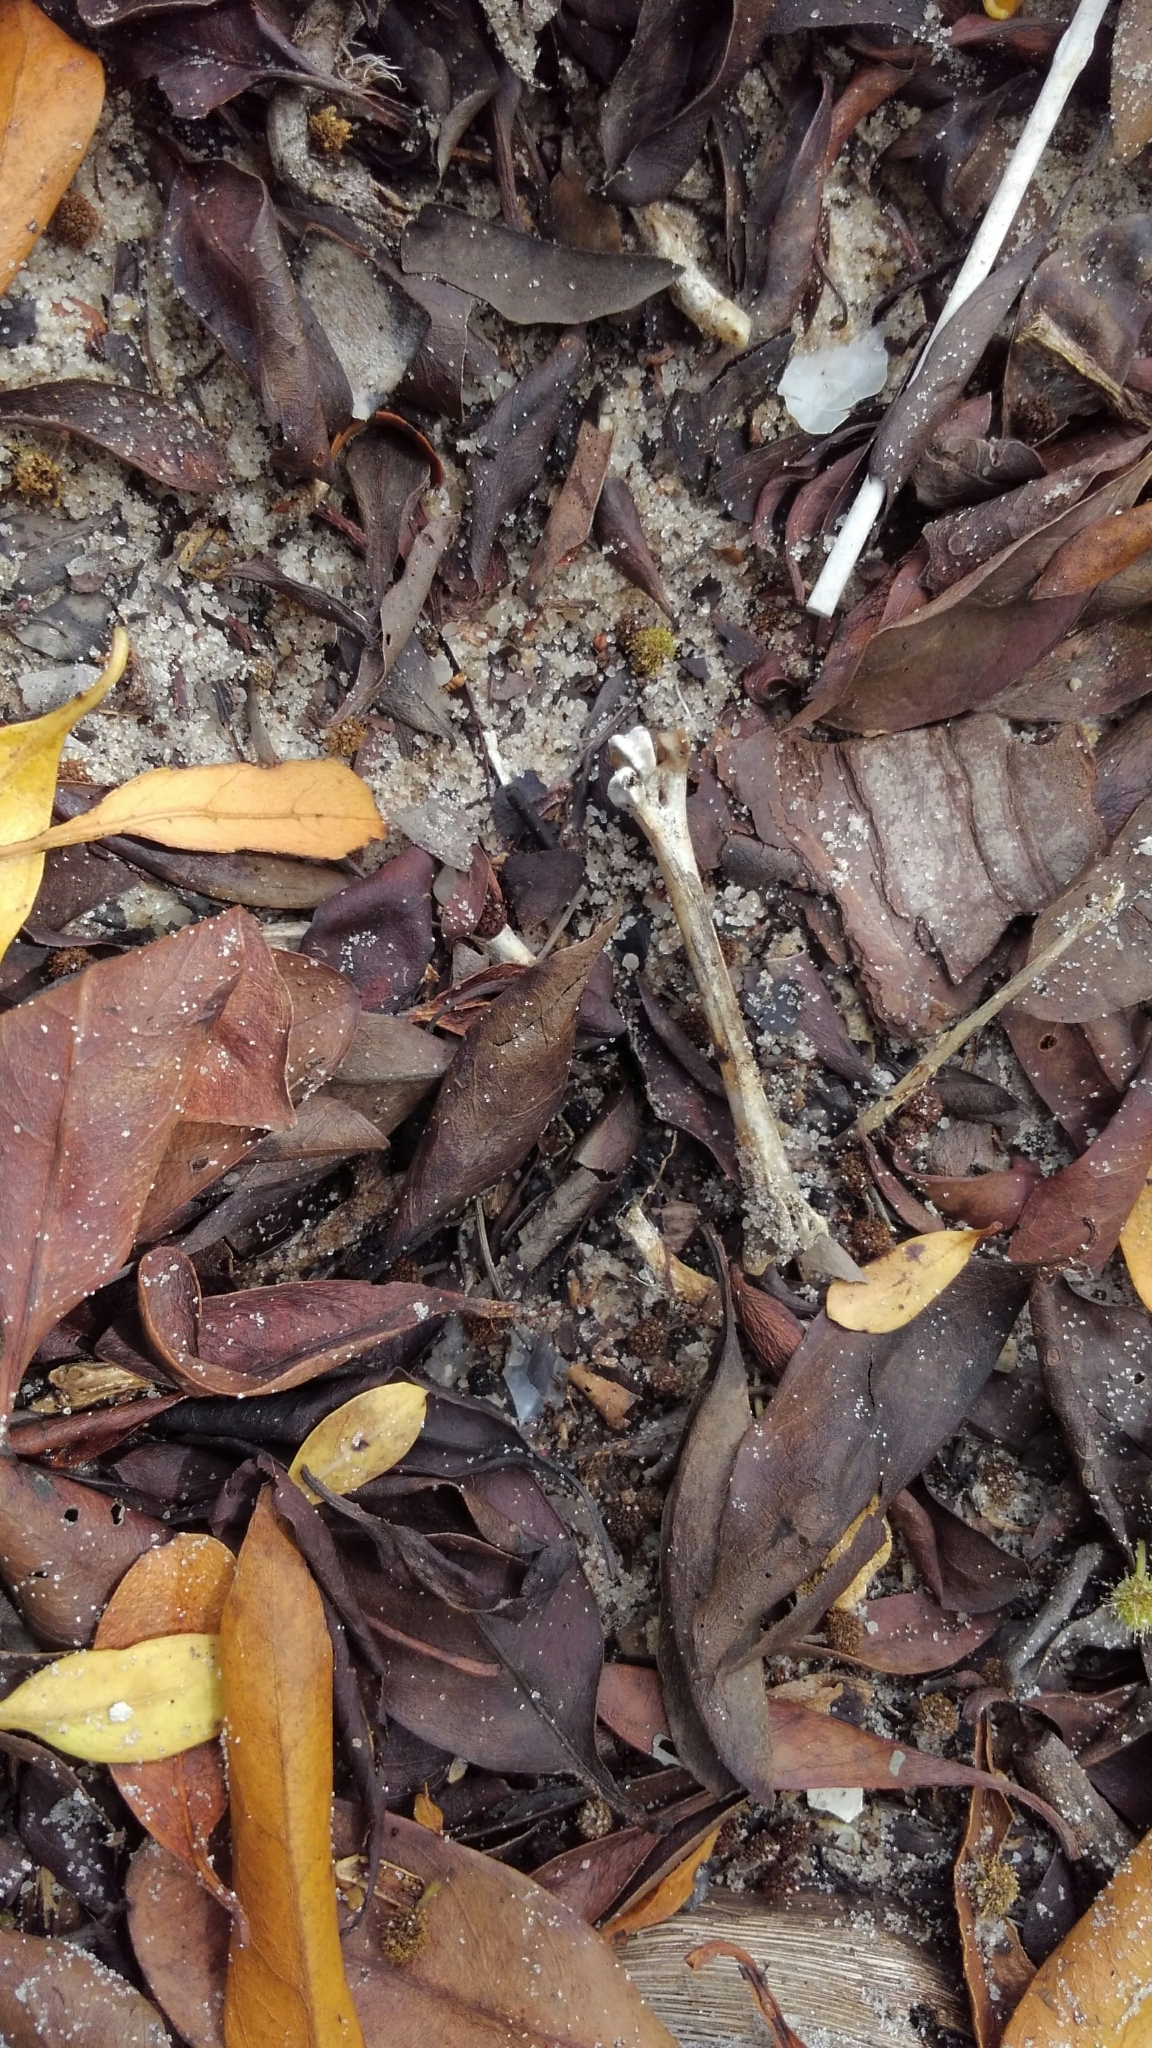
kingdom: Animalia
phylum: Chordata
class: Aves
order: Pelecaniformes
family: Threskiornithidae
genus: Eudocimus
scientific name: Eudocimus albus
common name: White ibis
